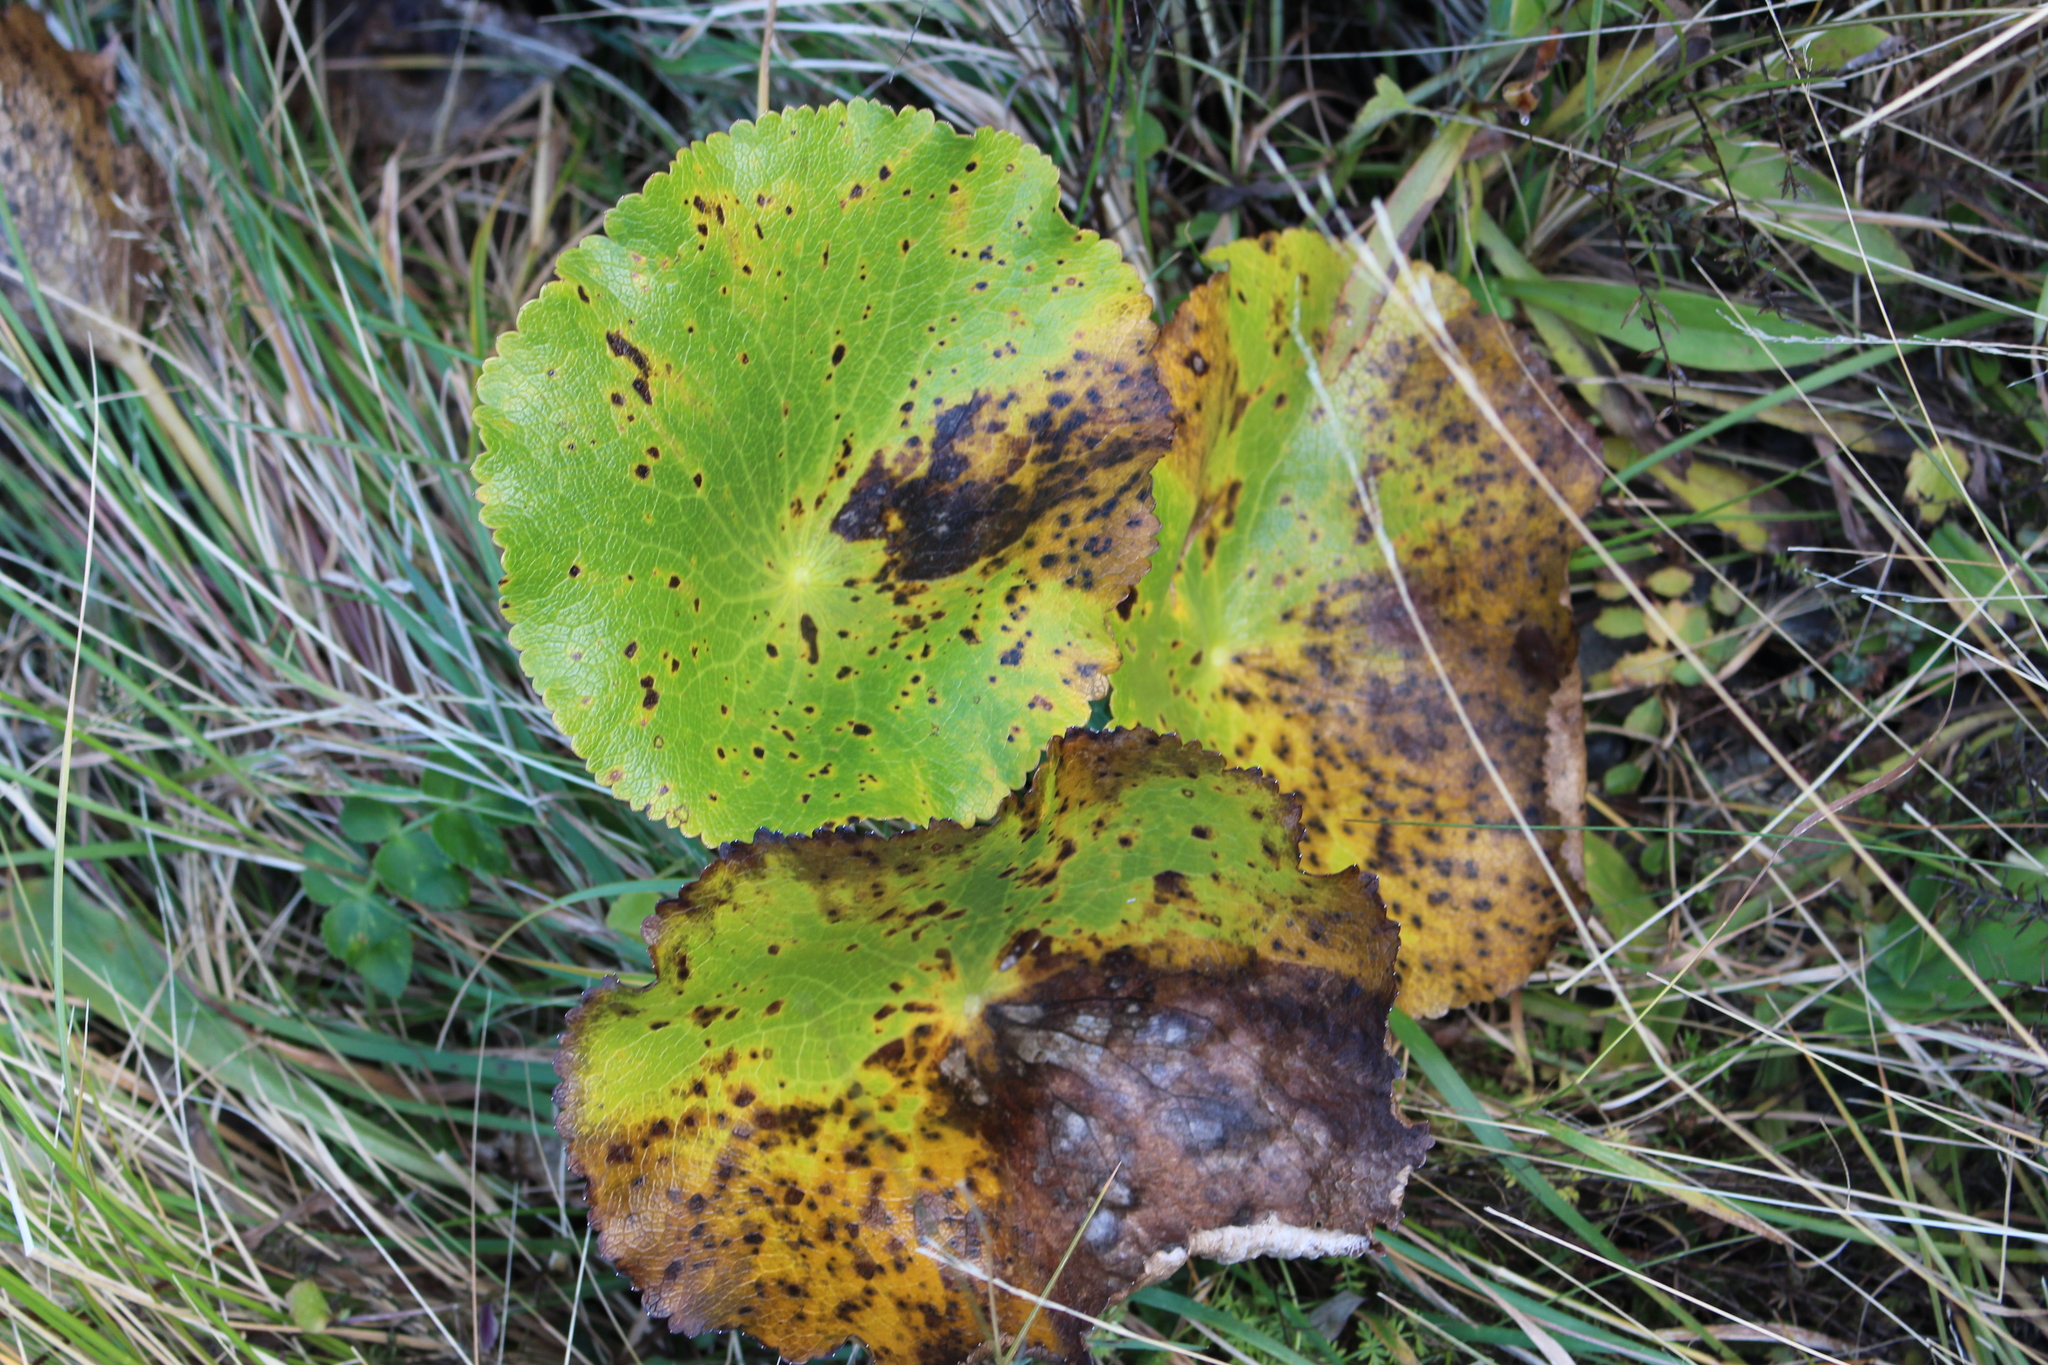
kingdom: Plantae
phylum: Tracheophyta
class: Magnoliopsida
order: Ranunculales
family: Ranunculaceae
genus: Ranunculus
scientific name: Ranunculus lyallii
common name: Mountain-lily
